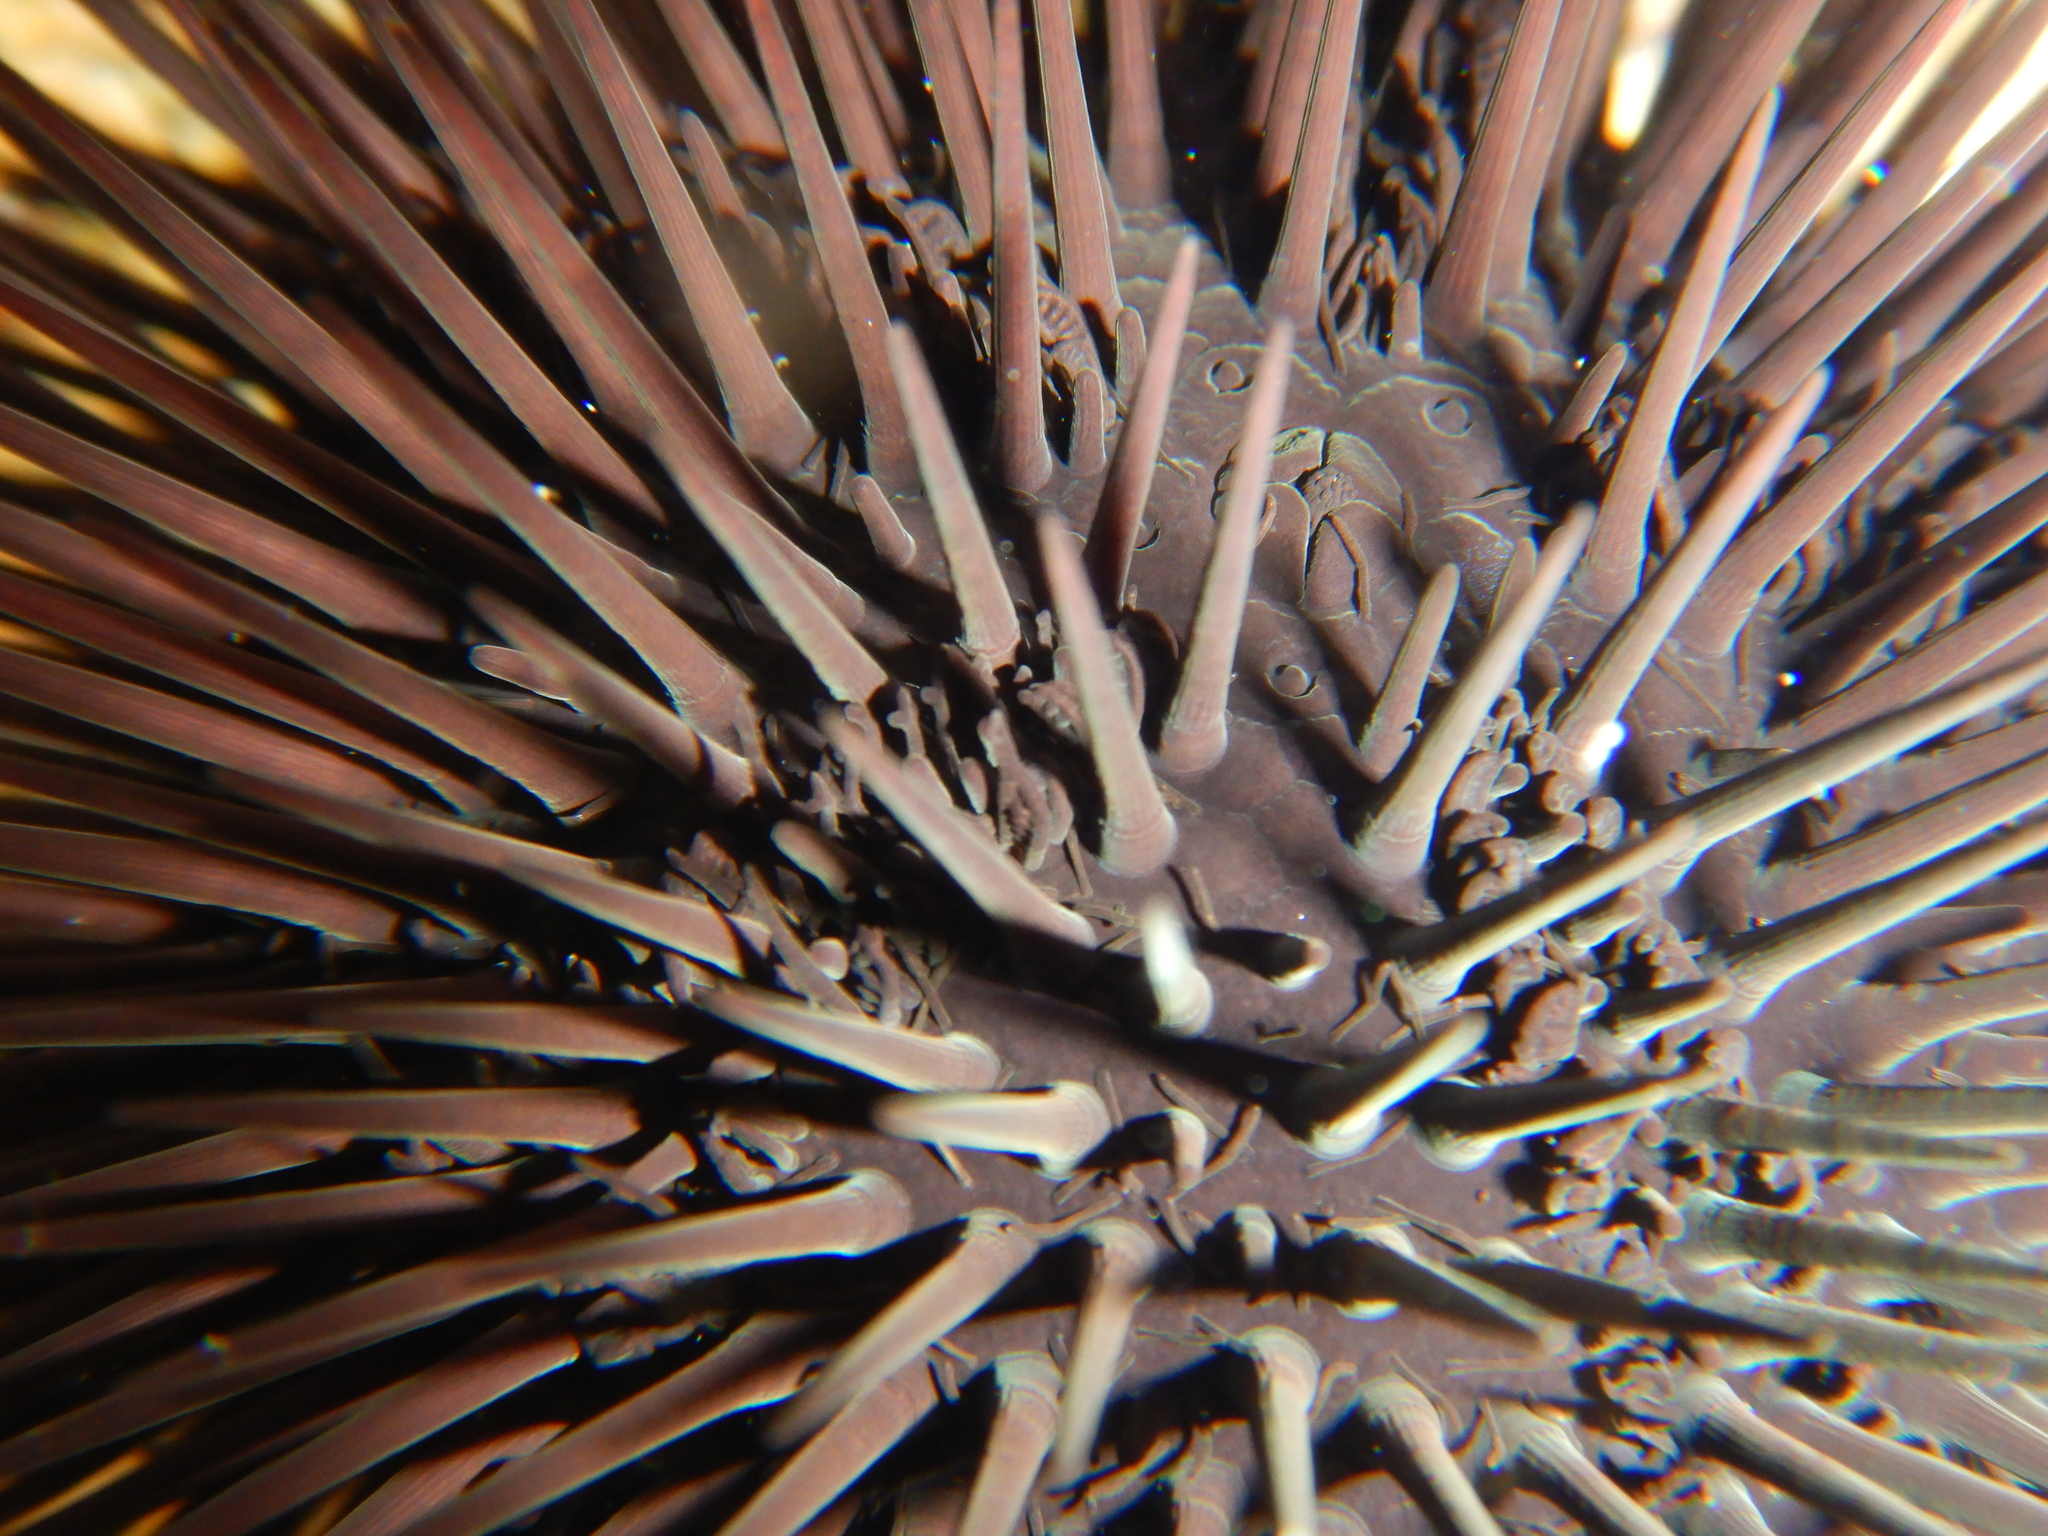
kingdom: Animalia
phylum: Echinodermata
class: Echinoidea
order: Arbacioida
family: Arbaciidae
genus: Arbacia
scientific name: Arbacia lixula
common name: Black sea urchin
